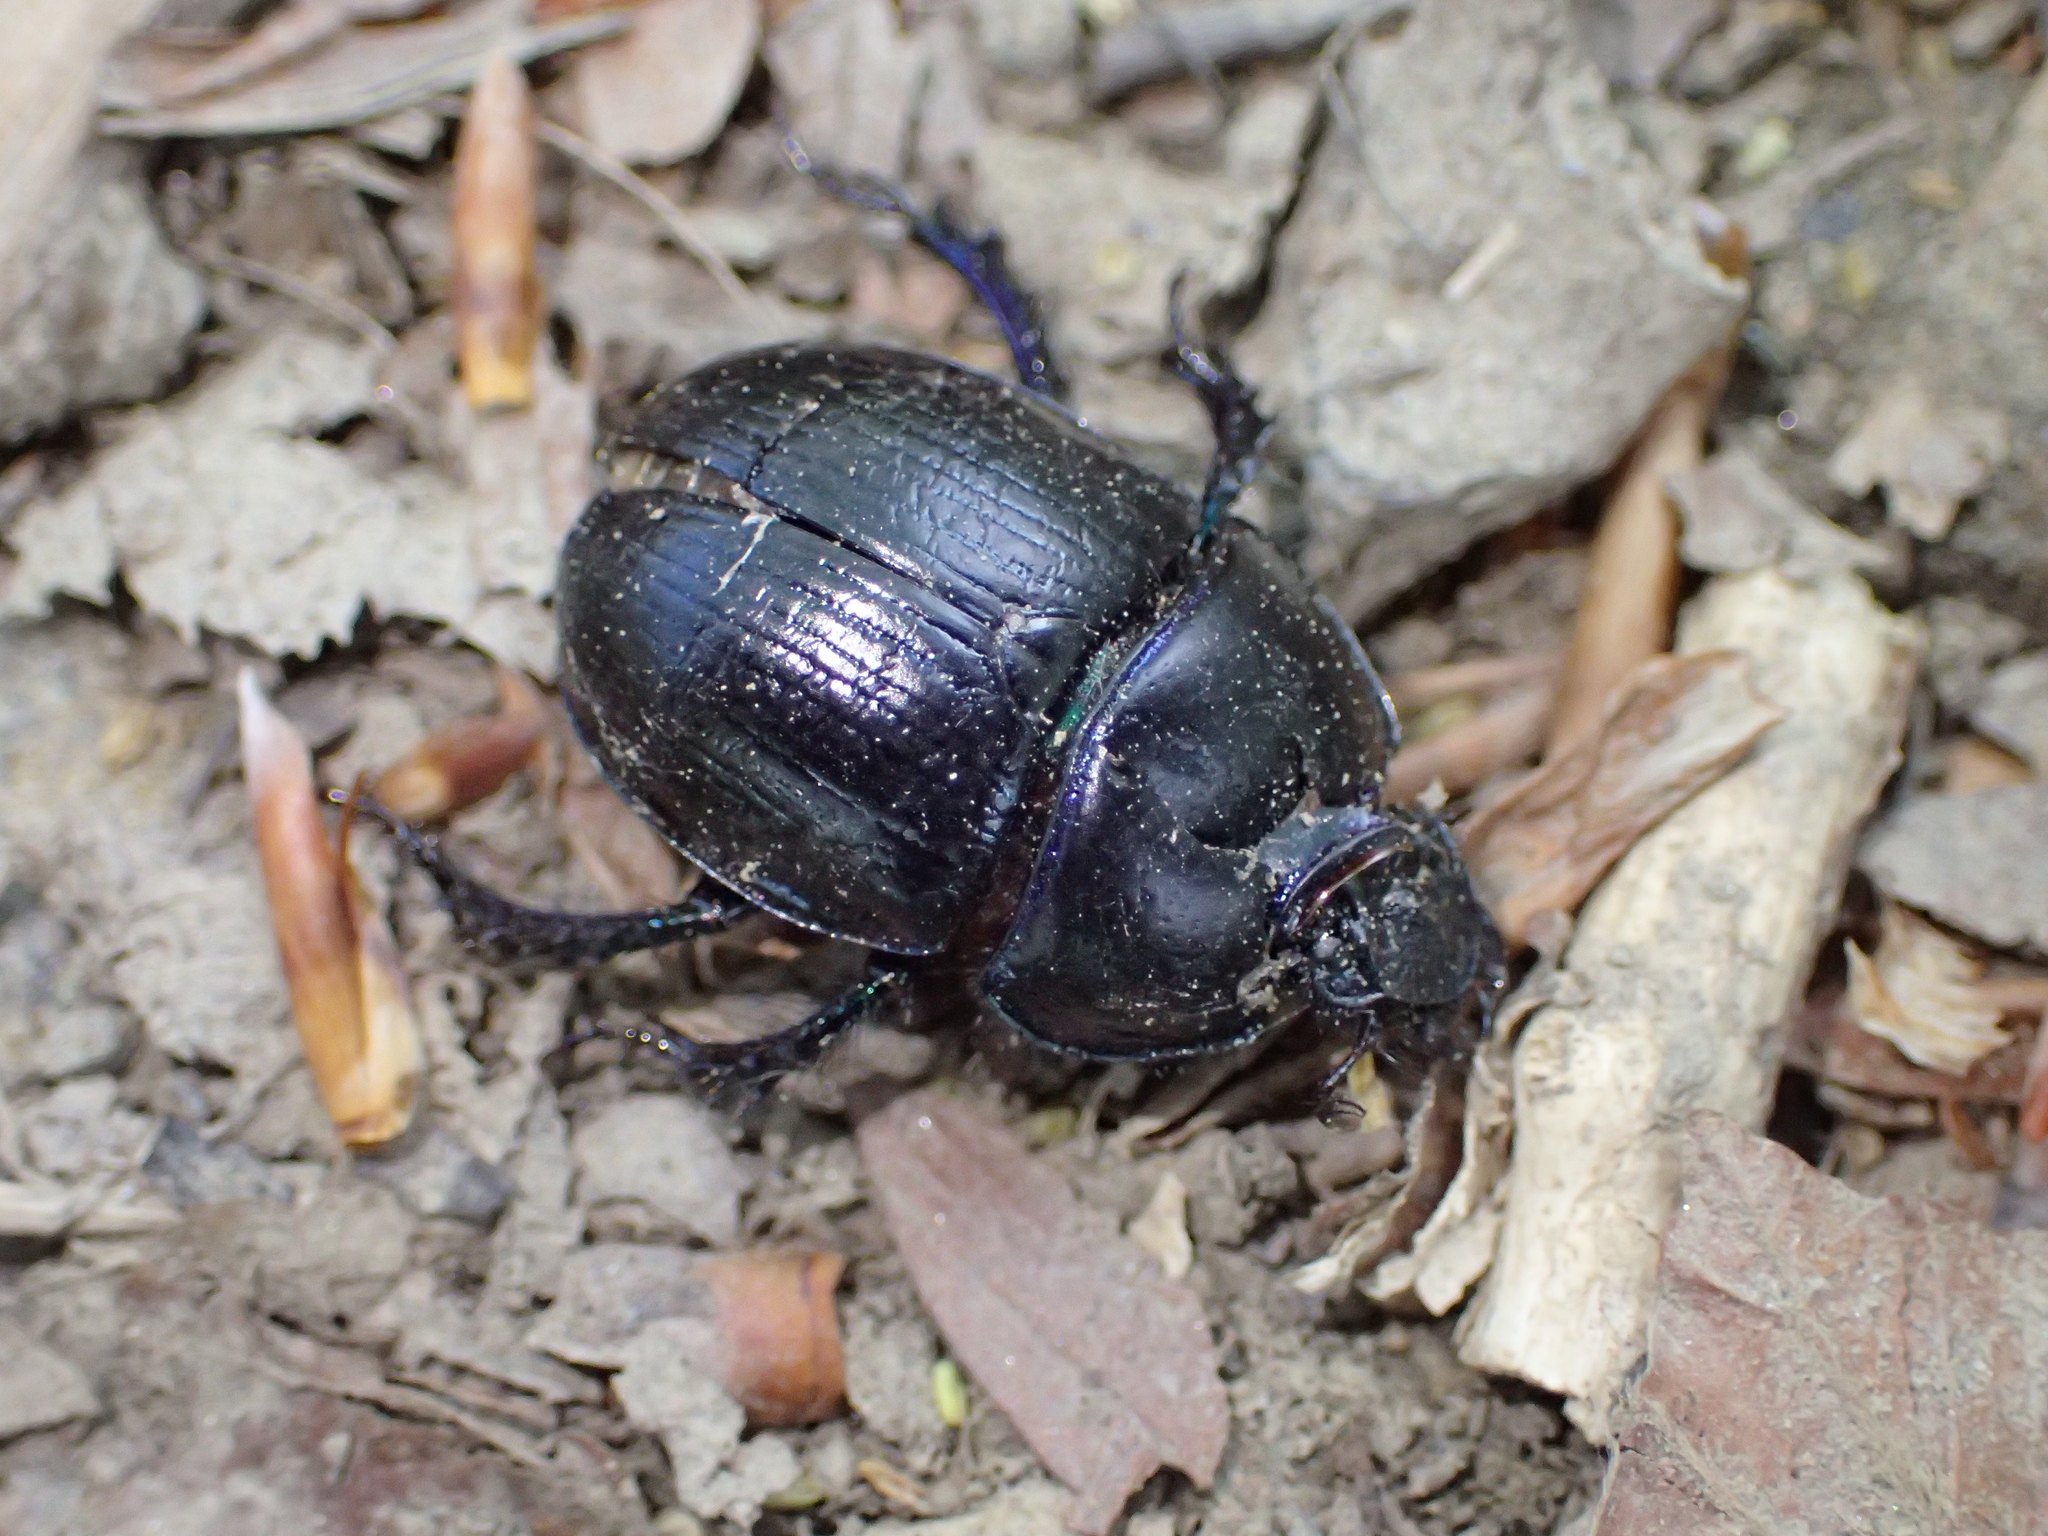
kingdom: Animalia
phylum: Arthropoda
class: Insecta
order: Coleoptera
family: Geotrupidae
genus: Anoplotrupes
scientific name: Anoplotrupes stercorosus
